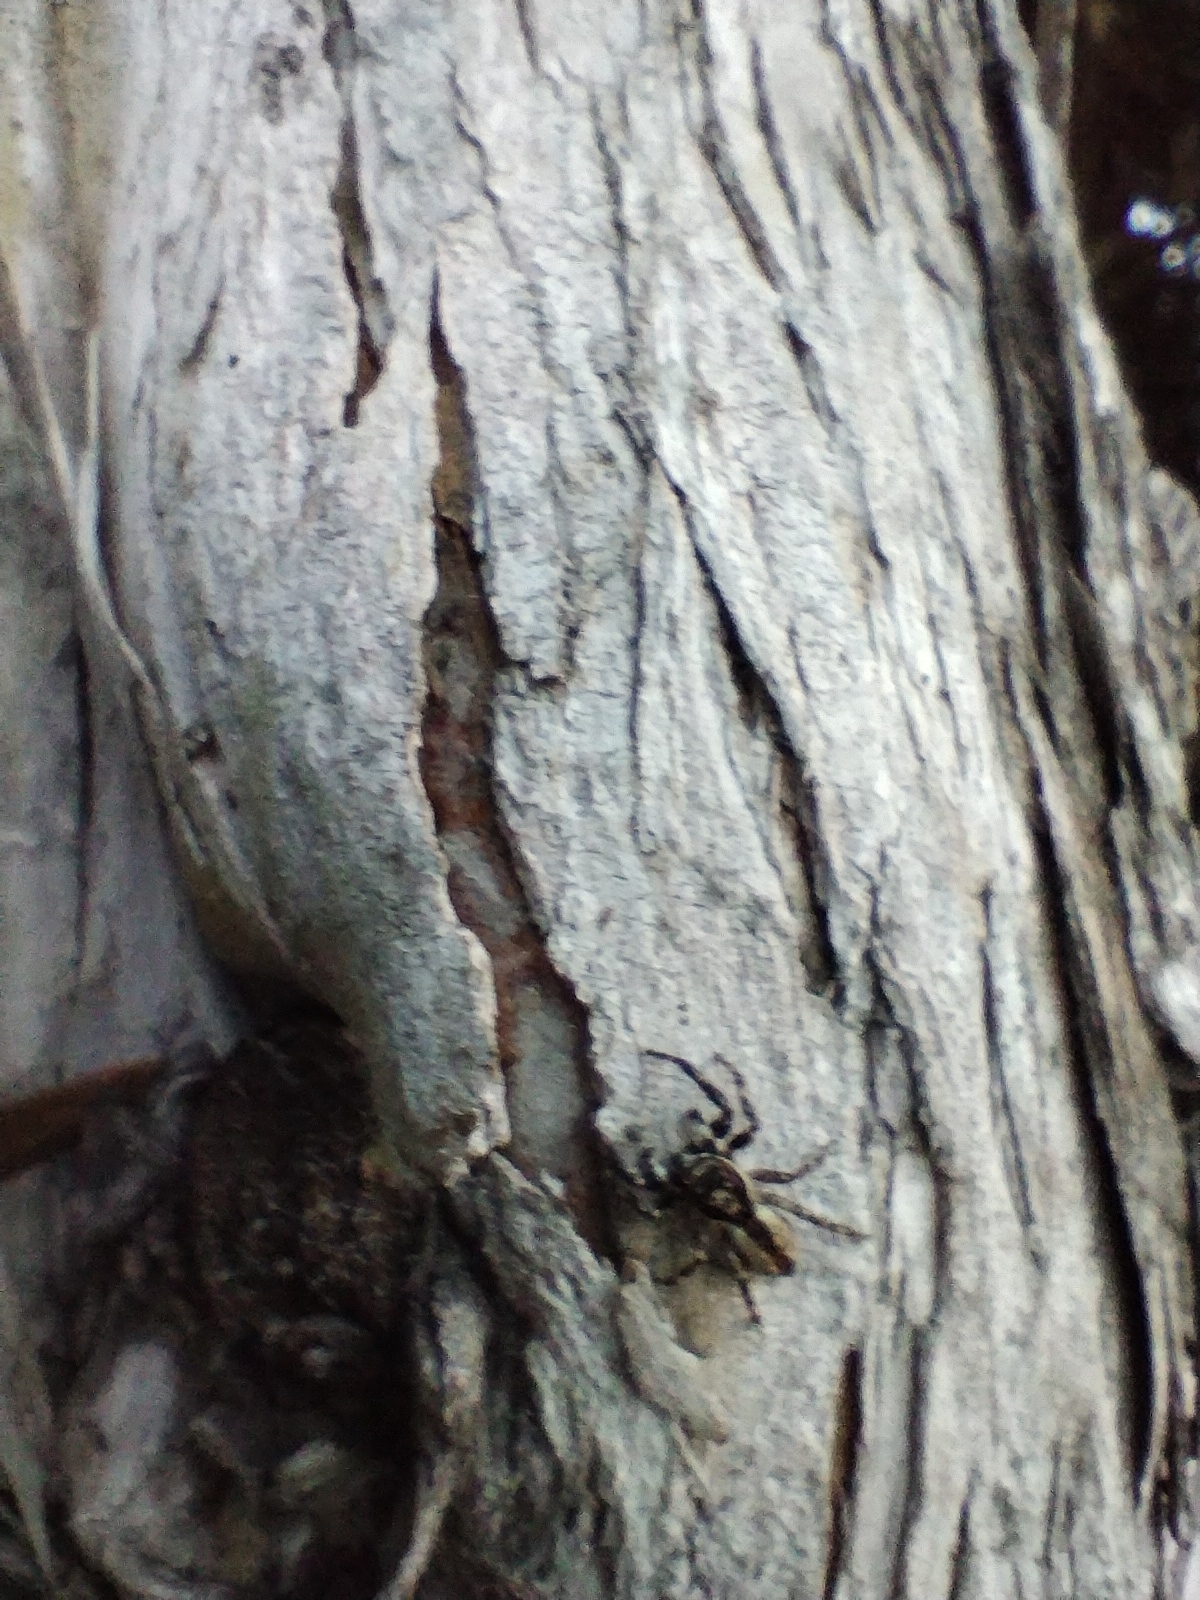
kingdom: Animalia
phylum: Arthropoda
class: Arachnida
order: Araneae
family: Salticidae
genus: Menemerus
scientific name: Menemerus bivittatus
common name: Gray wall jumper
